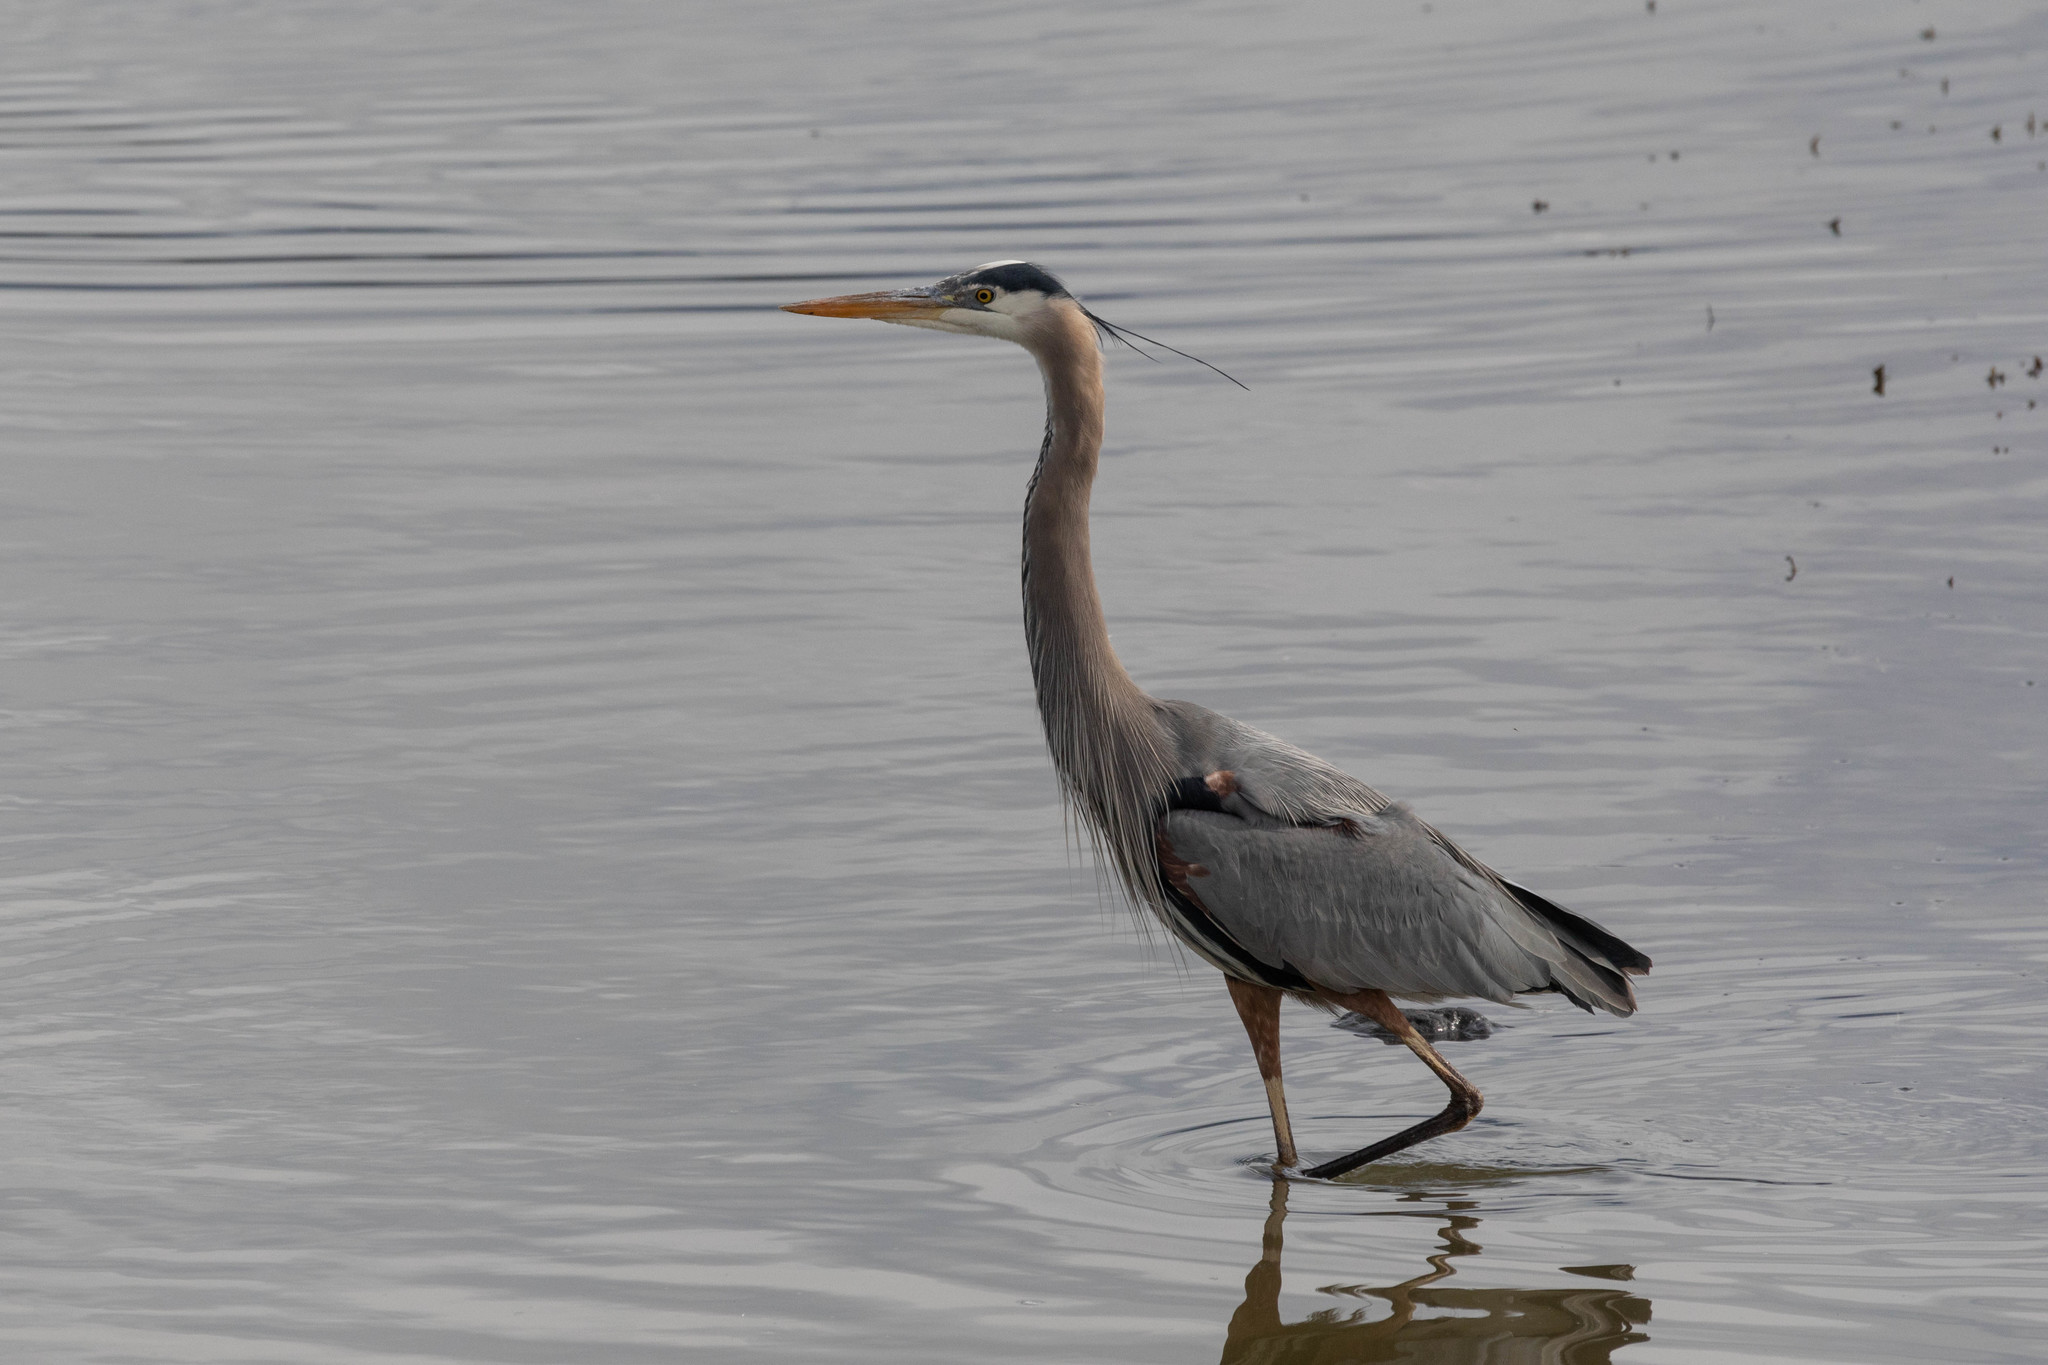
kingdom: Animalia
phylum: Chordata
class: Aves
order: Pelecaniformes
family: Ardeidae
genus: Ardea
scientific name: Ardea herodias
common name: Great blue heron
